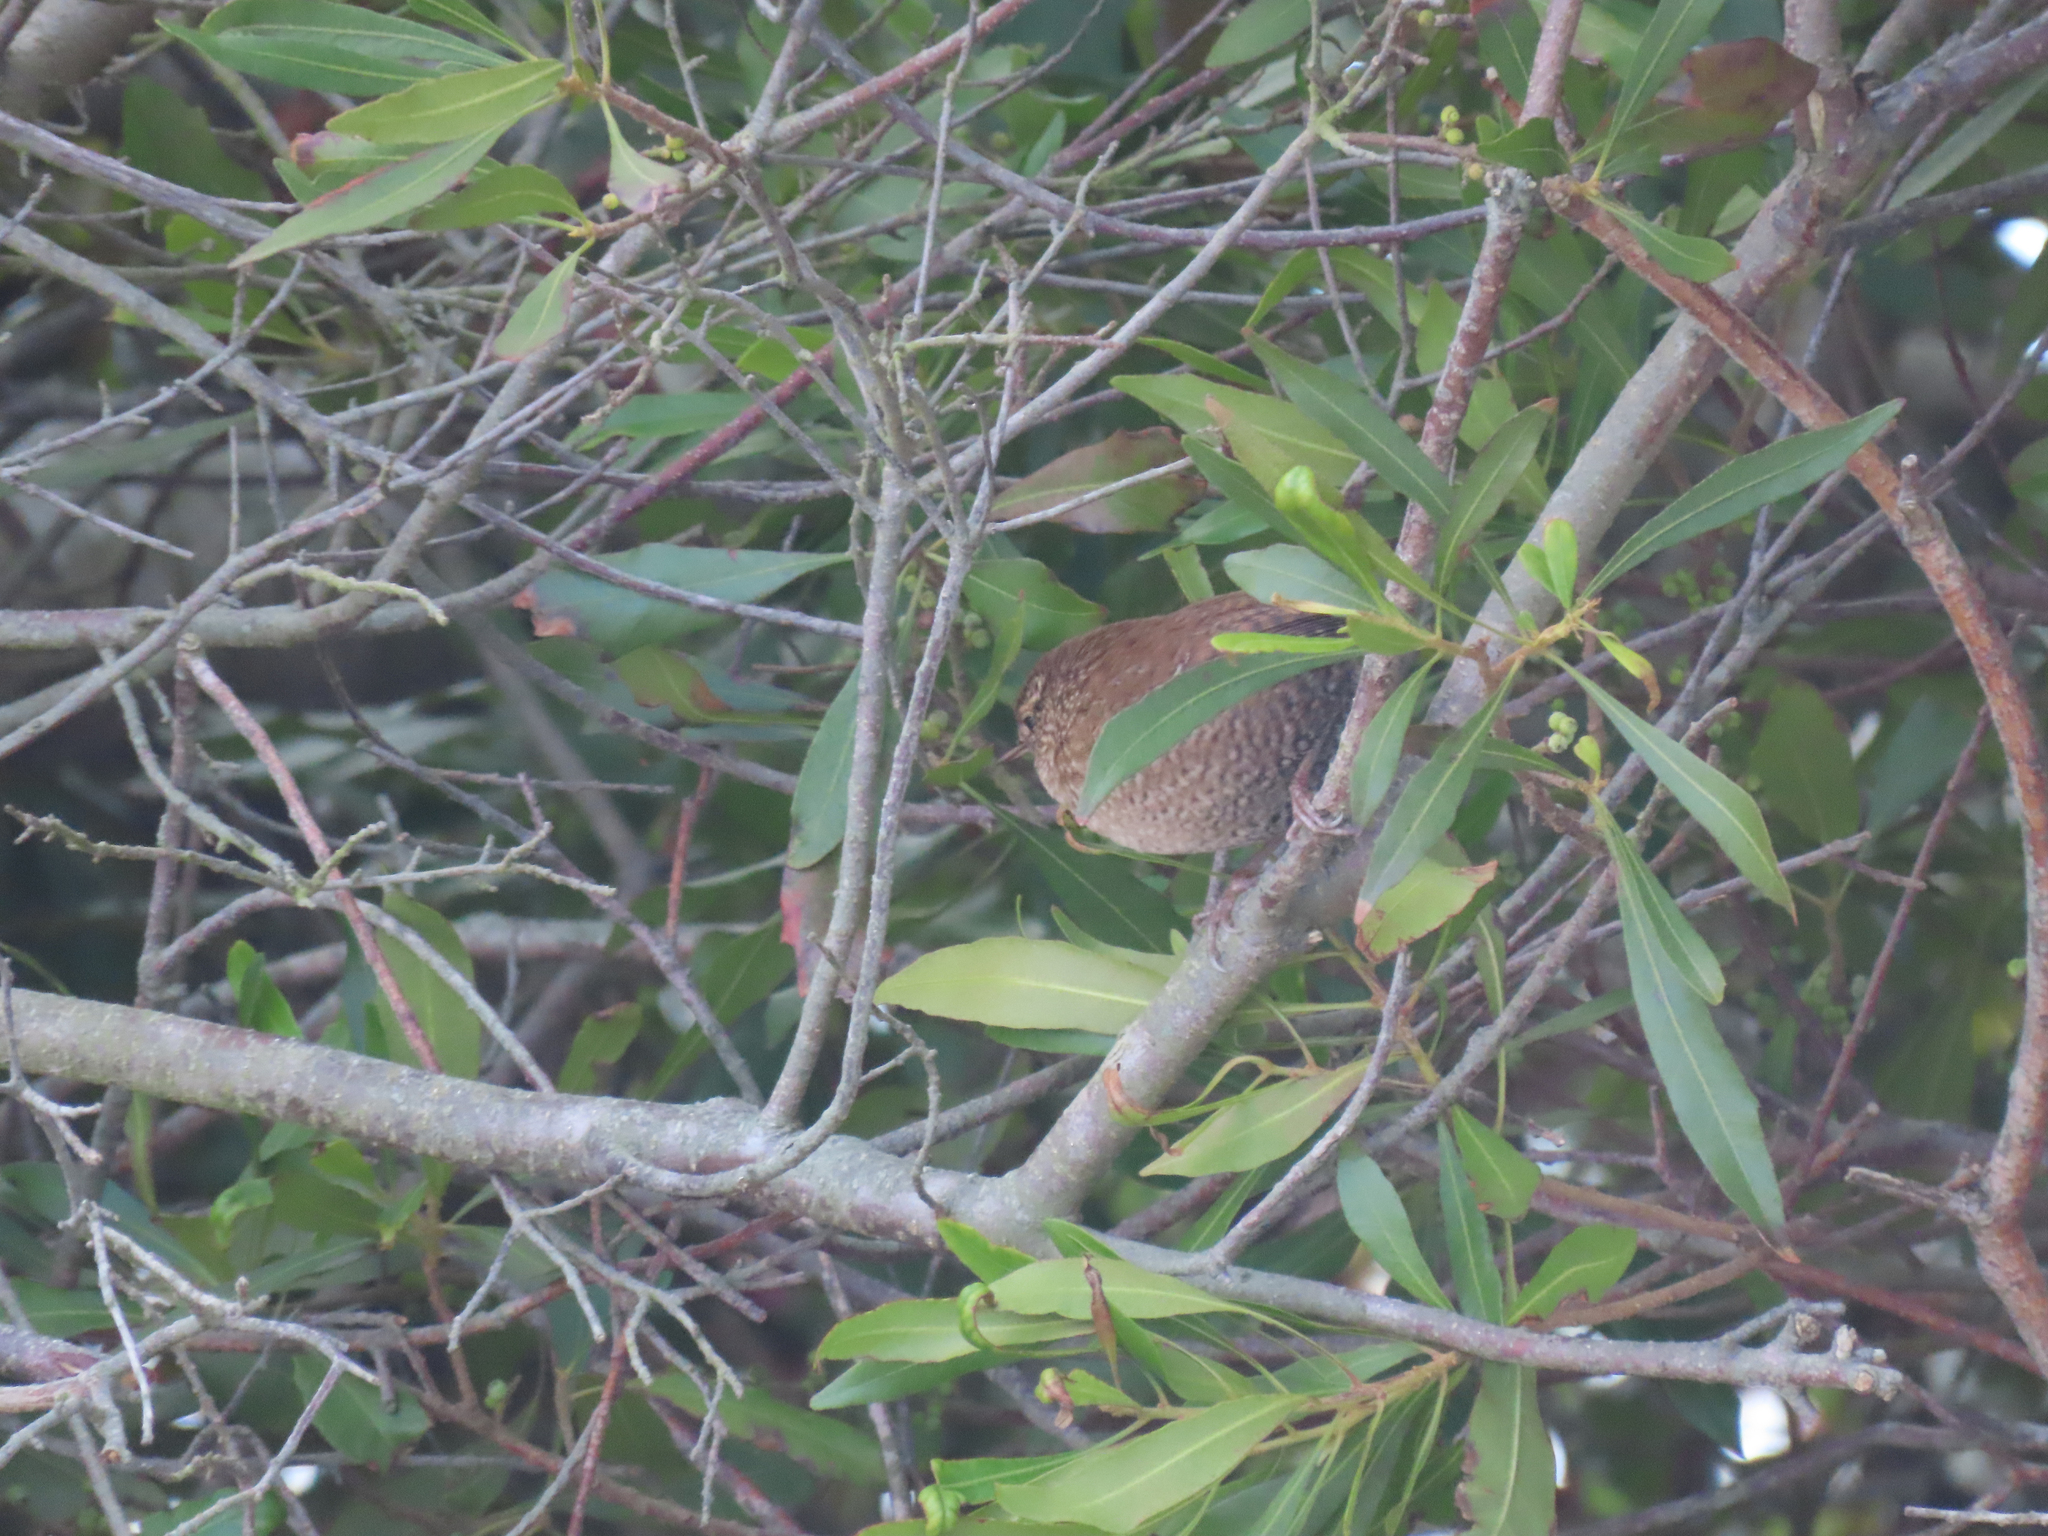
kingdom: Animalia
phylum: Chordata
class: Aves
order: Passeriformes
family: Troglodytidae
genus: Troglodytes
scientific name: Troglodytes hiemalis
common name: Winter wren
